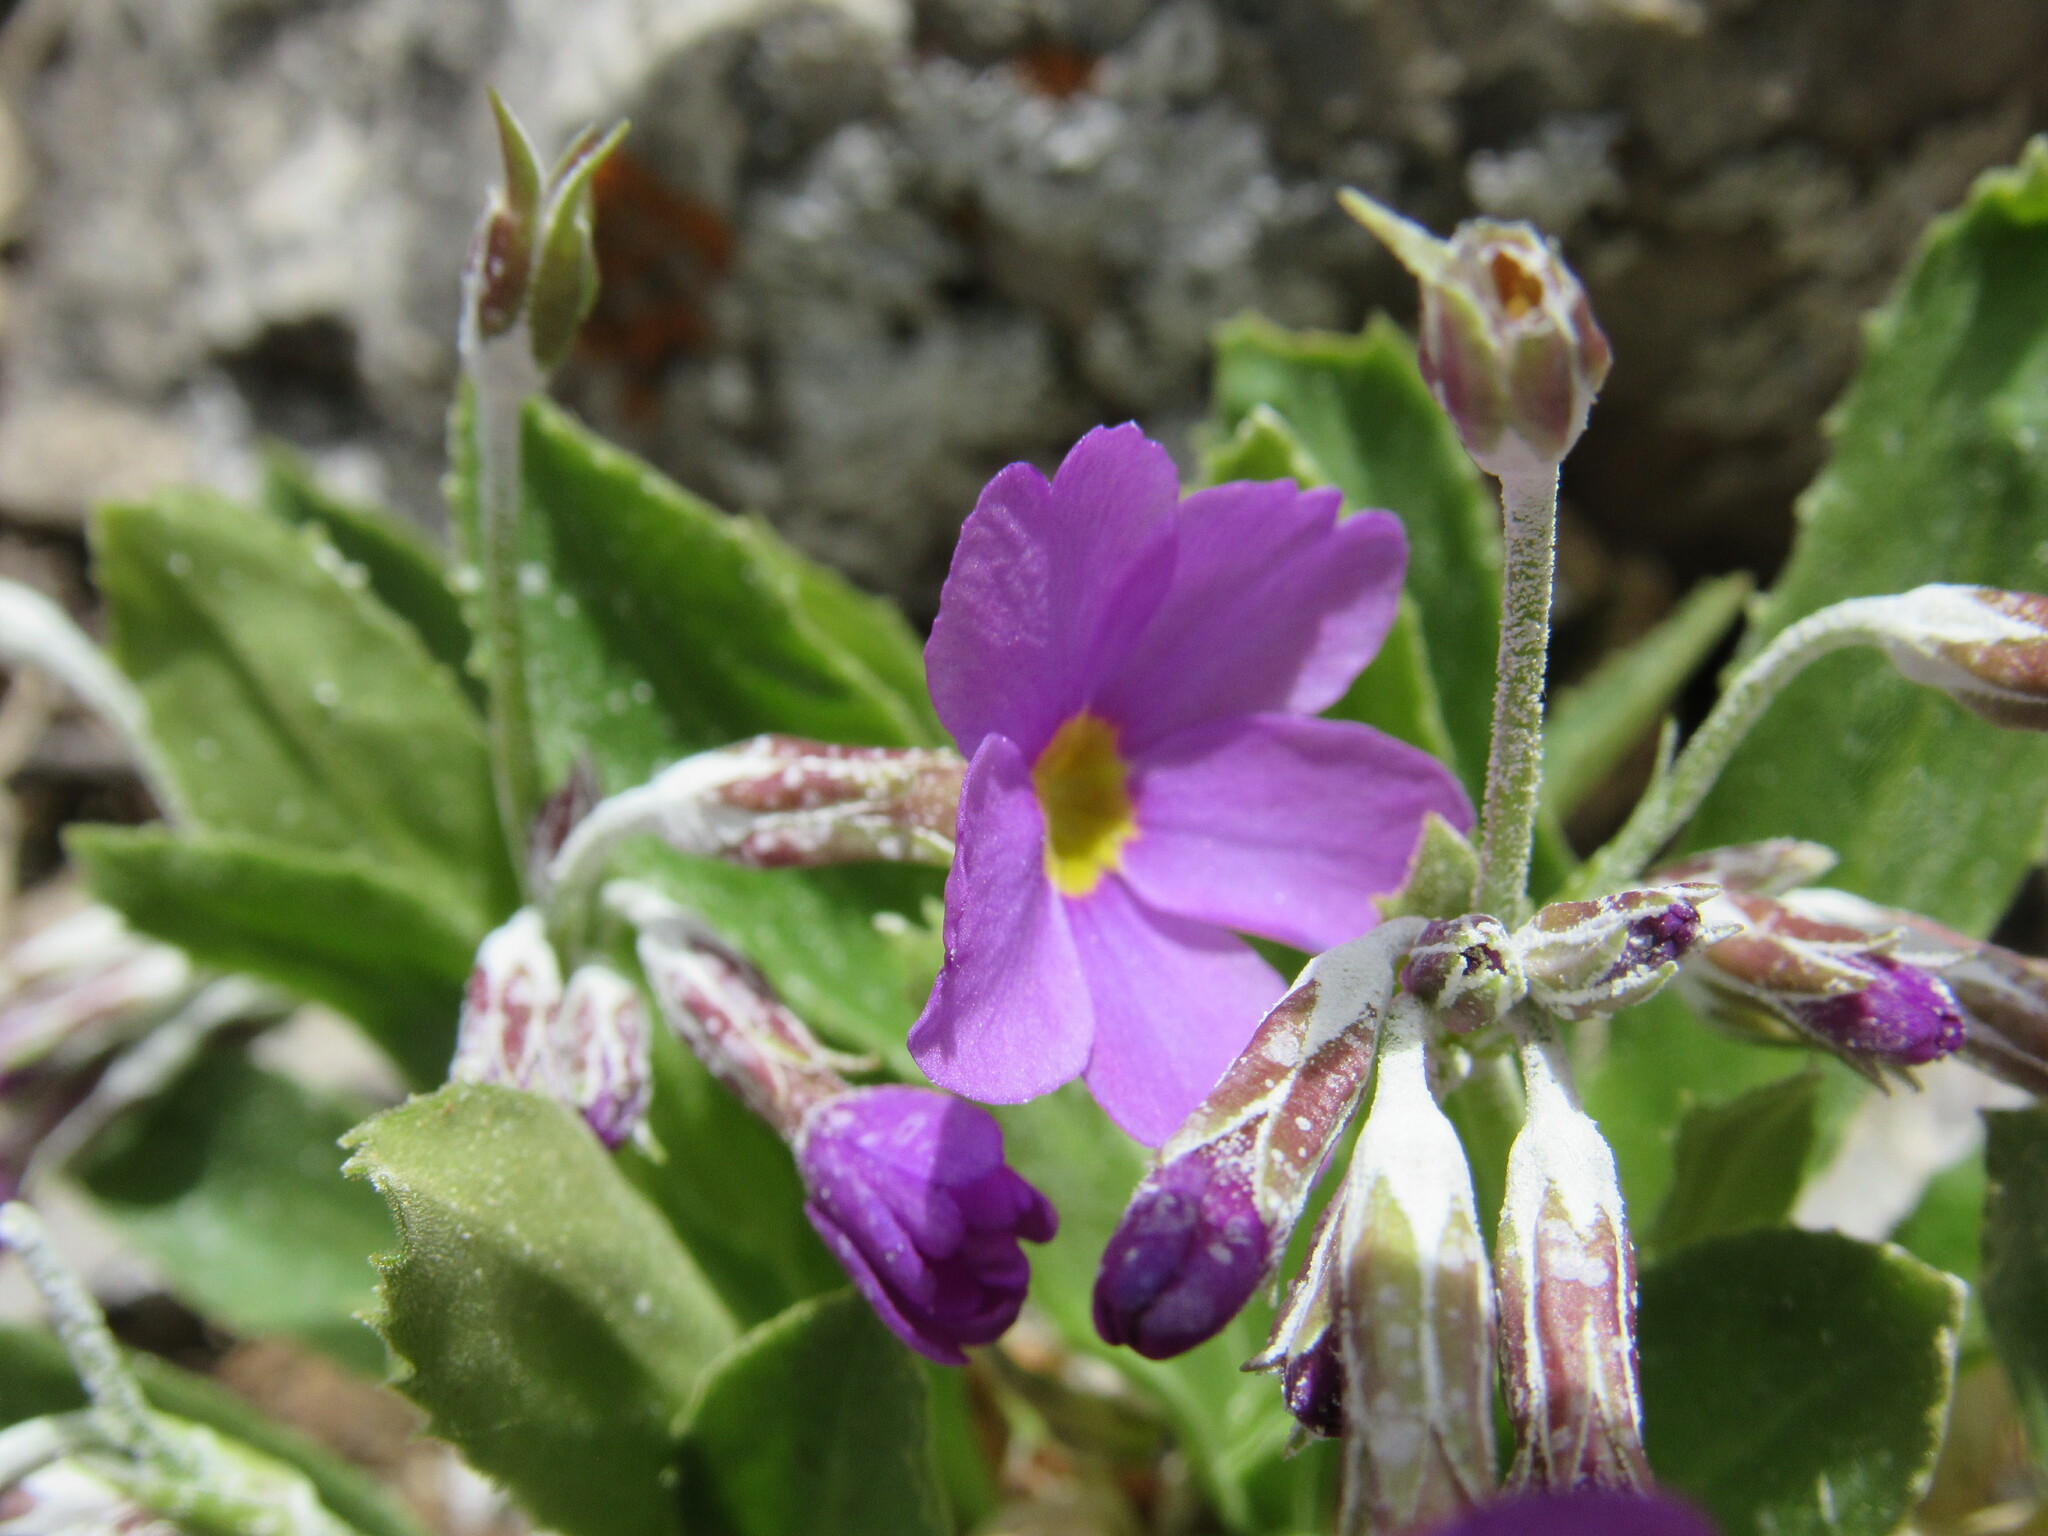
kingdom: Plantae
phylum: Tracheophyta
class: Magnoliopsida
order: Ericales
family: Primulaceae
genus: Primula
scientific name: Primula rusbyi
